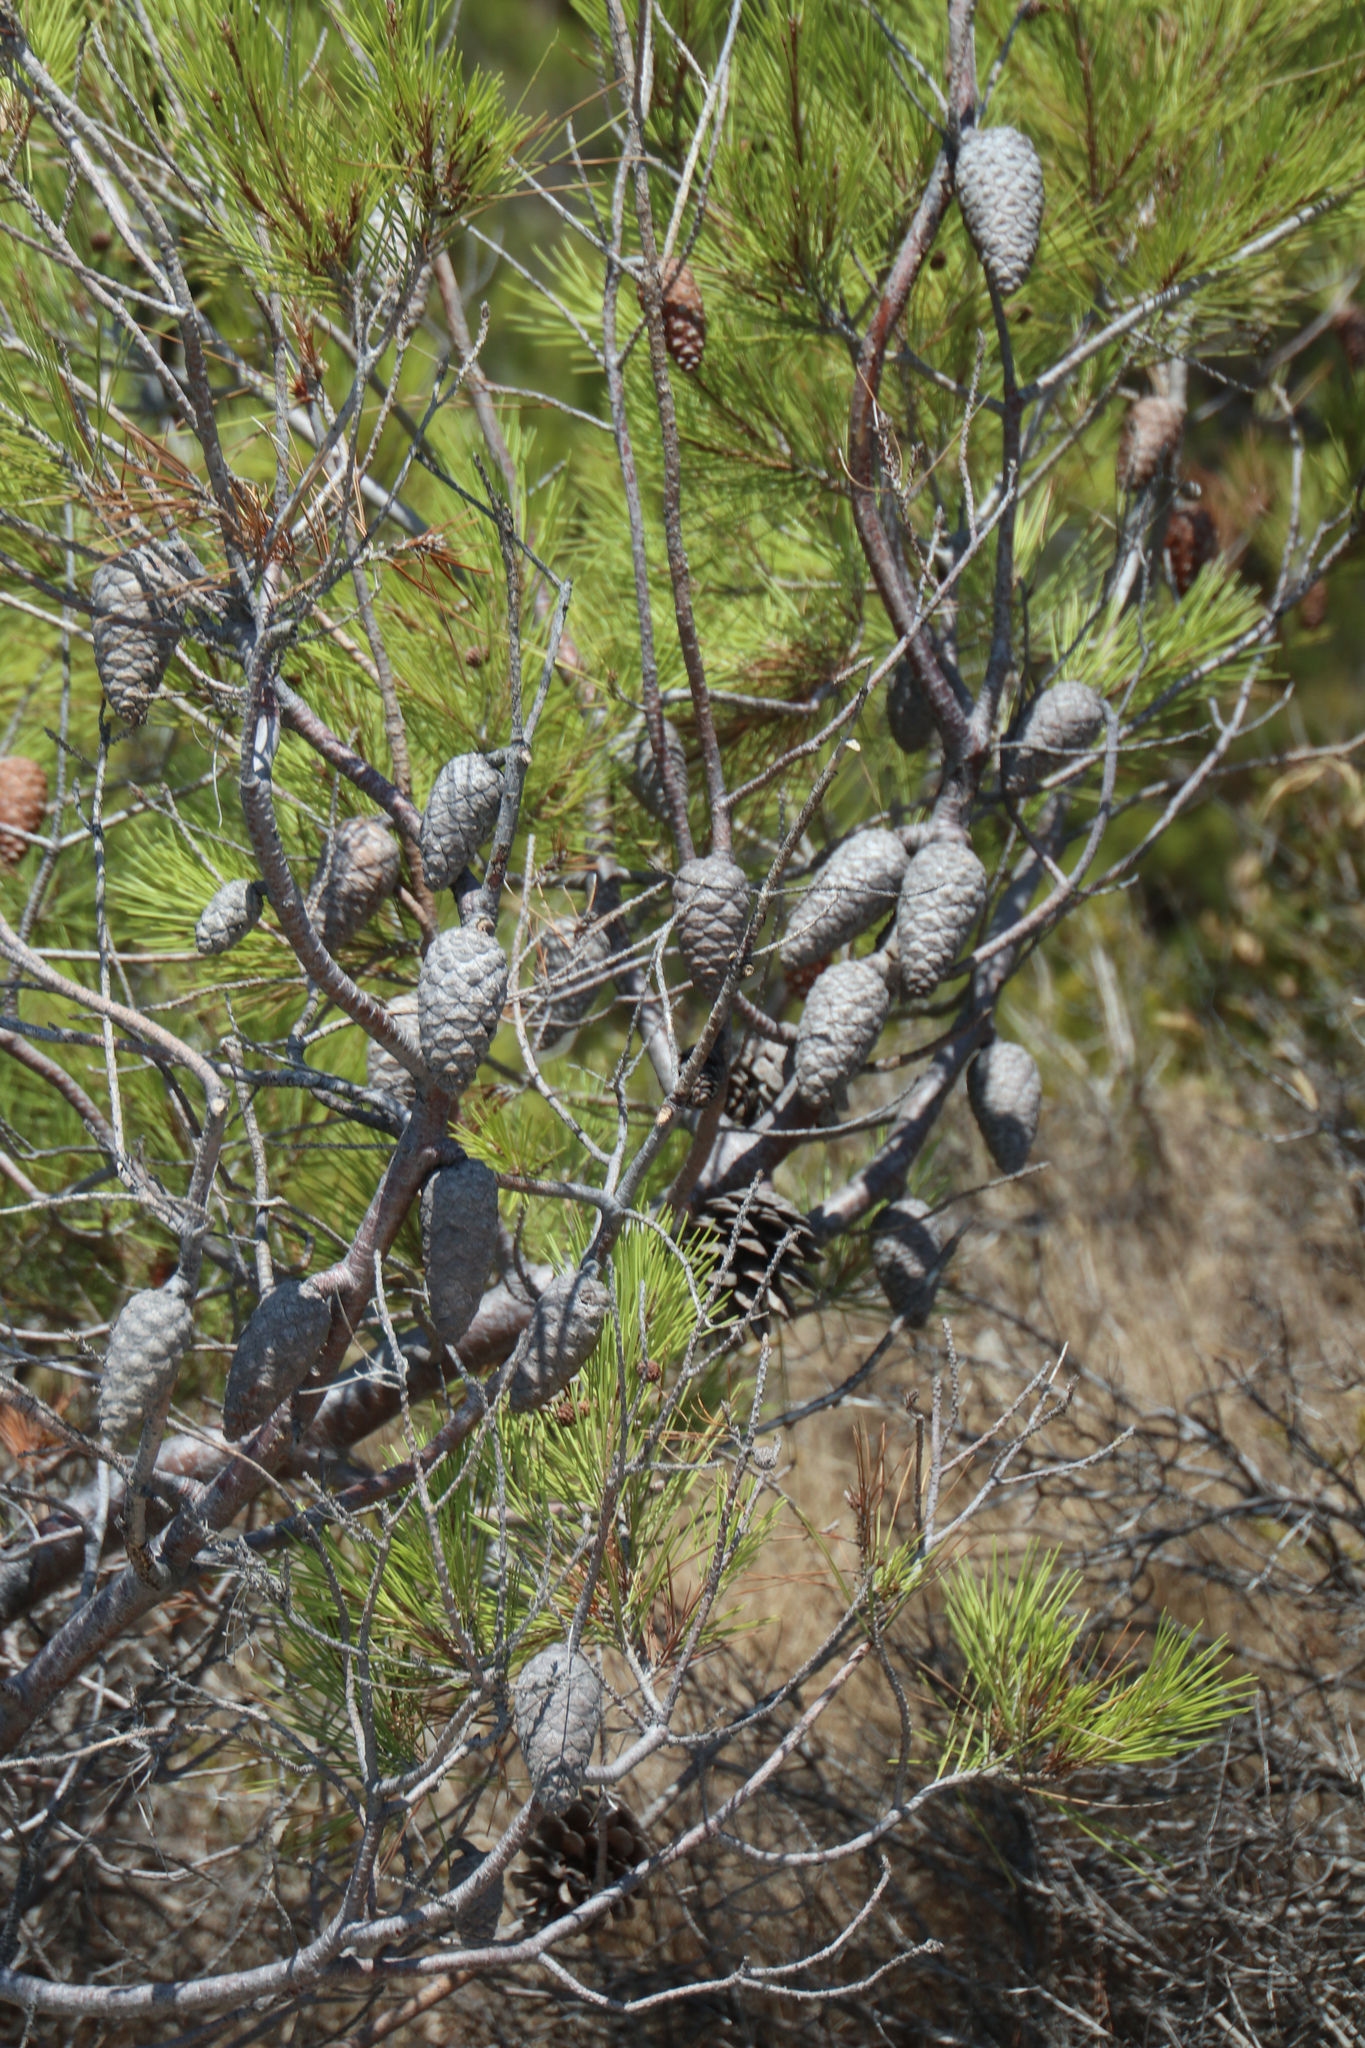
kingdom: Plantae
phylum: Tracheophyta
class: Pinopsida
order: Pinales
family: Pinaceae
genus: Pinus
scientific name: Pinus halepensis
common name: Aleppo pine
